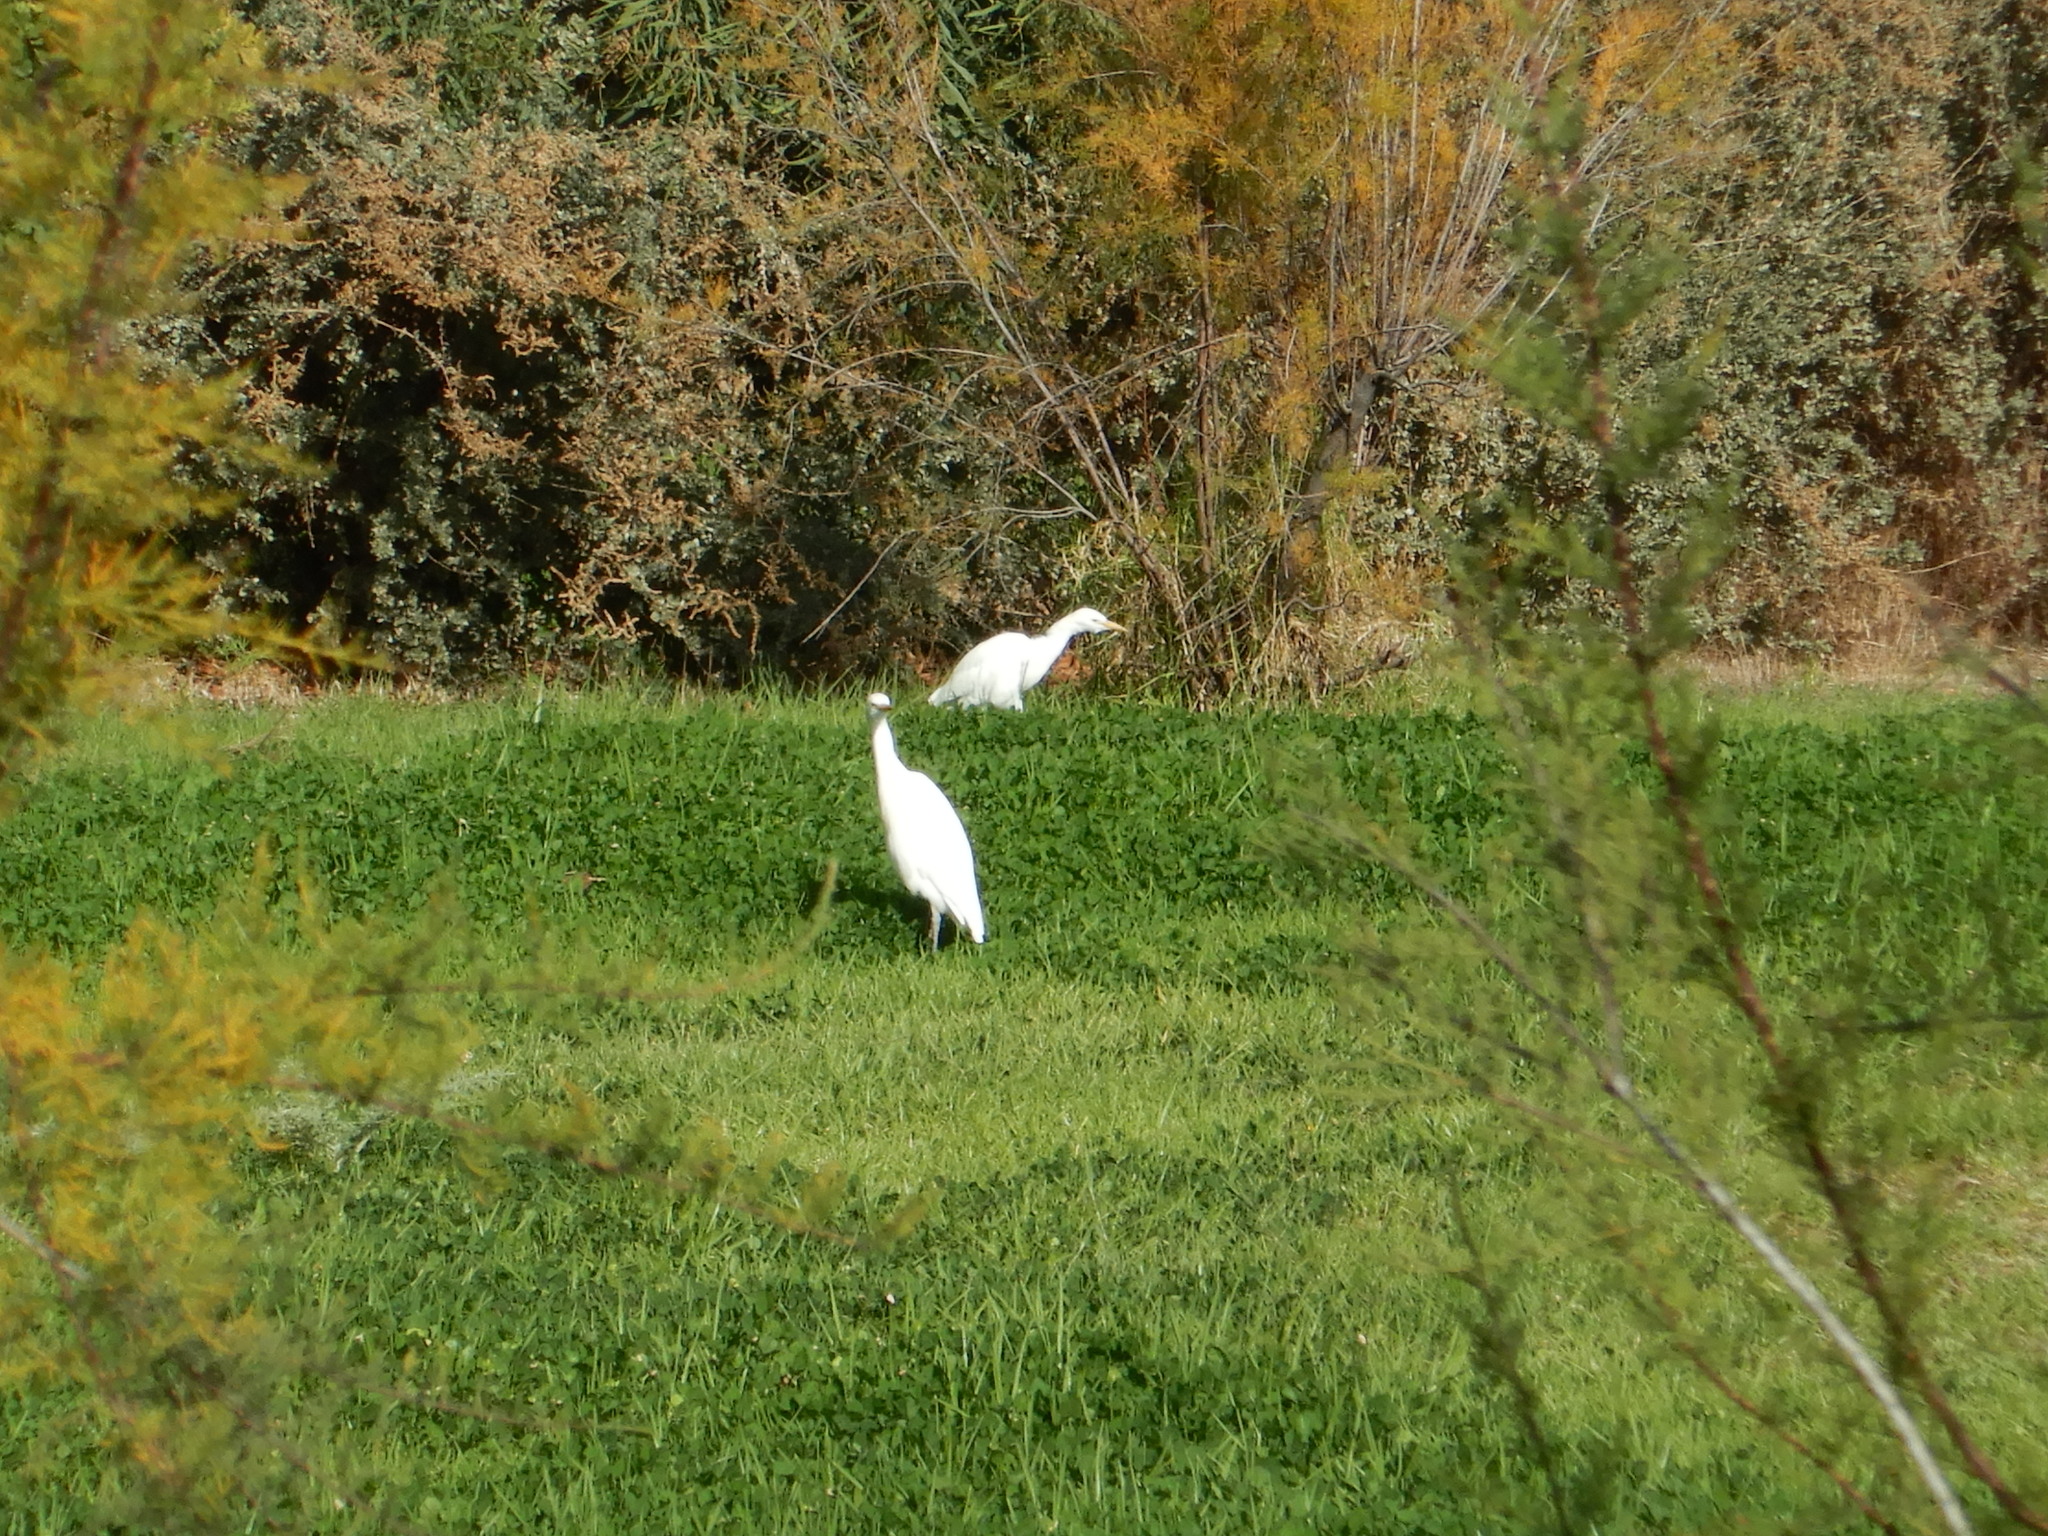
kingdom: Animalia
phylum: Chordata
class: Aves
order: Pelecaniformes
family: Ardeidae
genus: Bubulcus
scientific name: Bubulcus ibis
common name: Cattle egret
